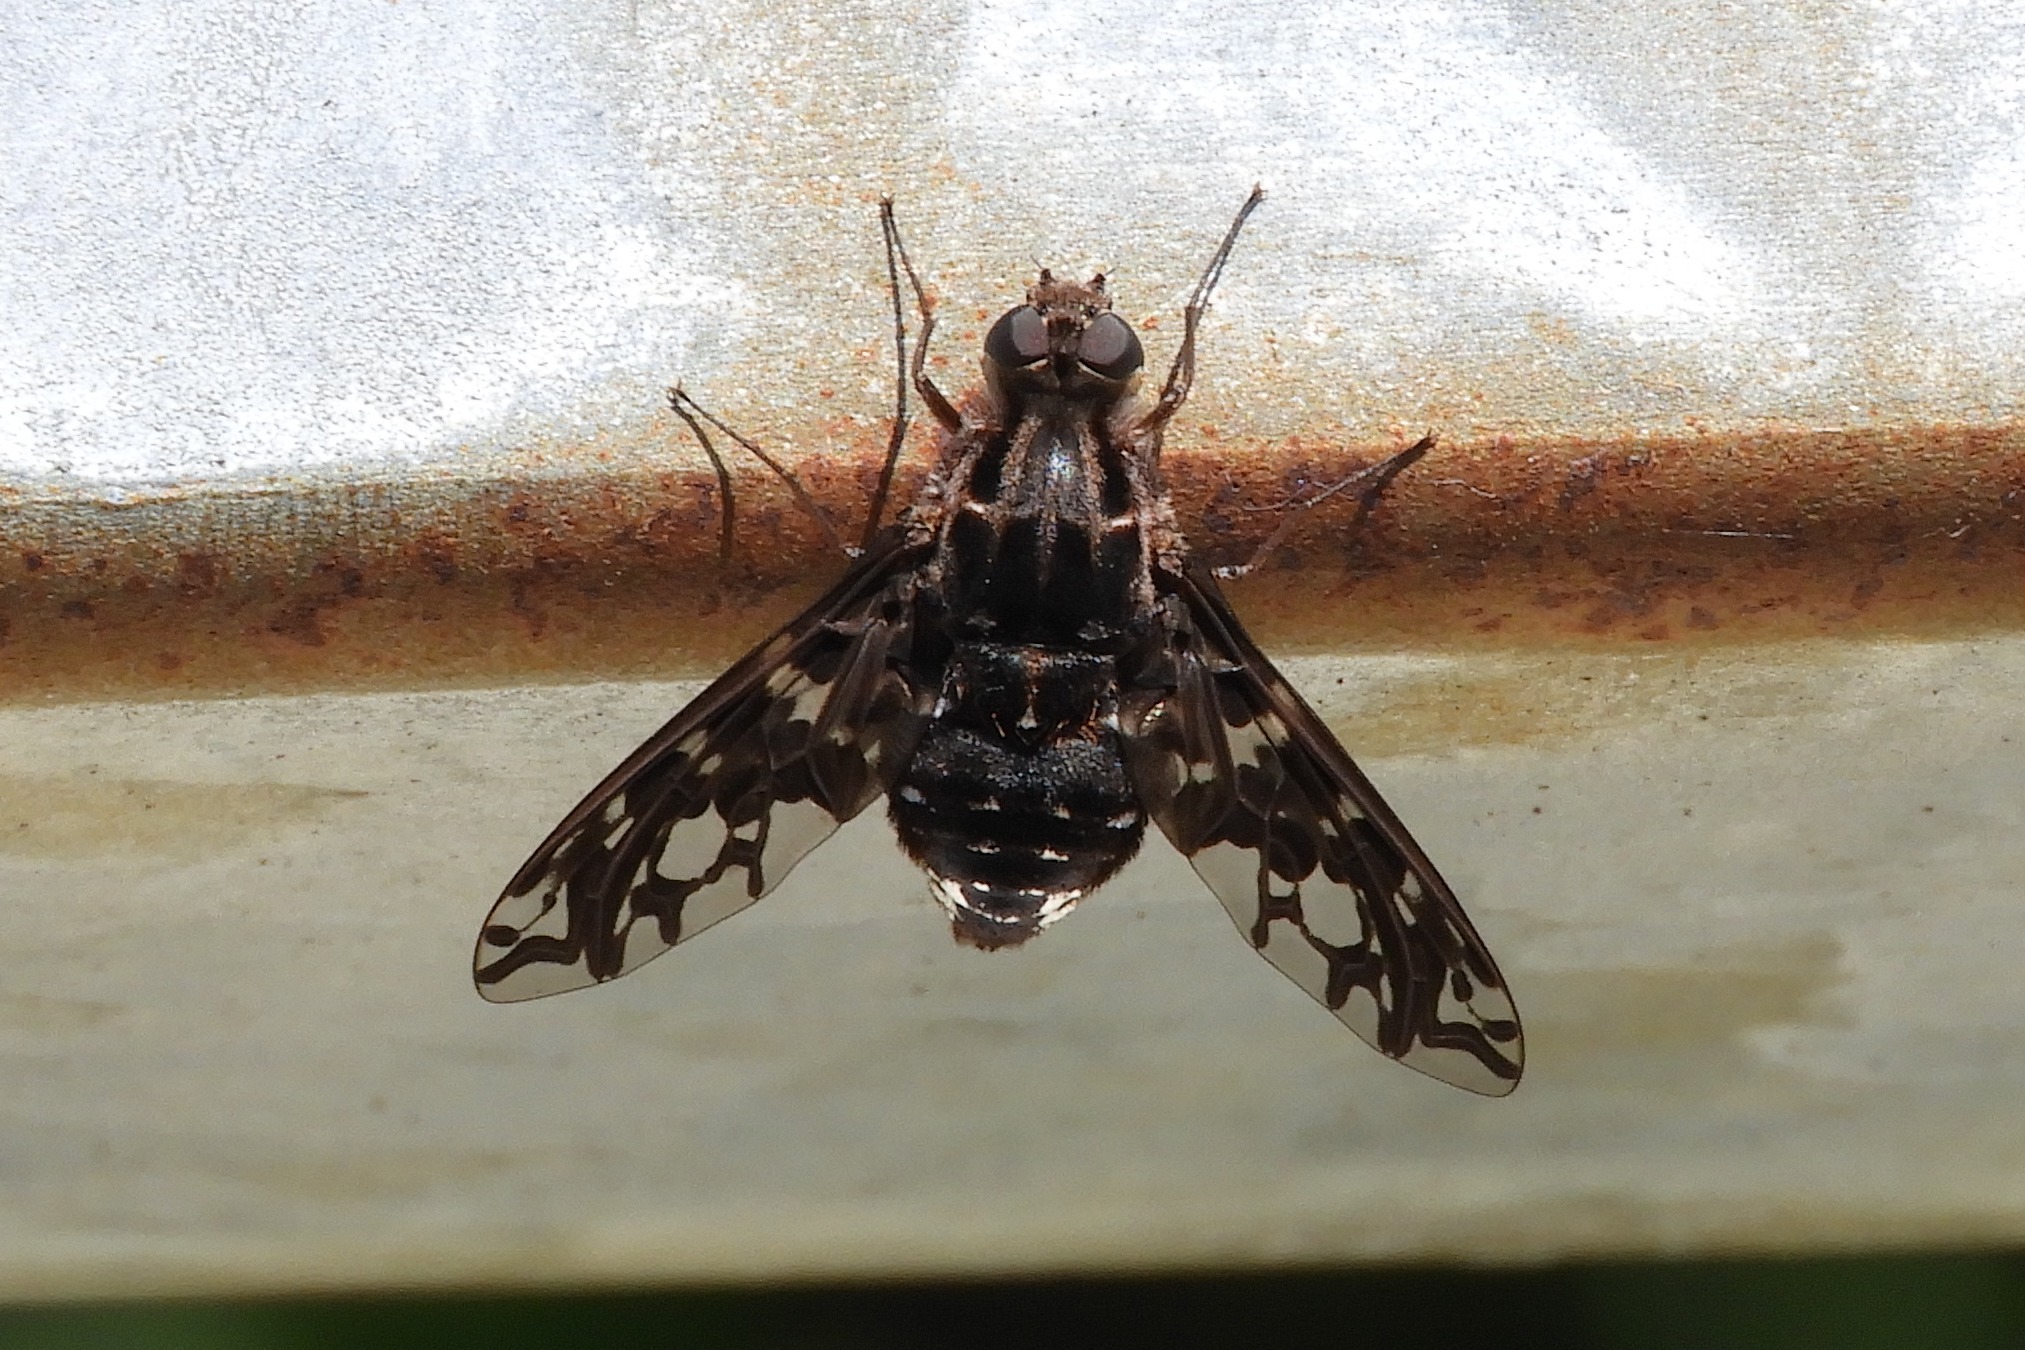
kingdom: Animalia
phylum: Arthropoda
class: Insecta
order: Diptera
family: Bombyliidae
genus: Xenox
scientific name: Xenox tigrinus
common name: Tiger bee fly
